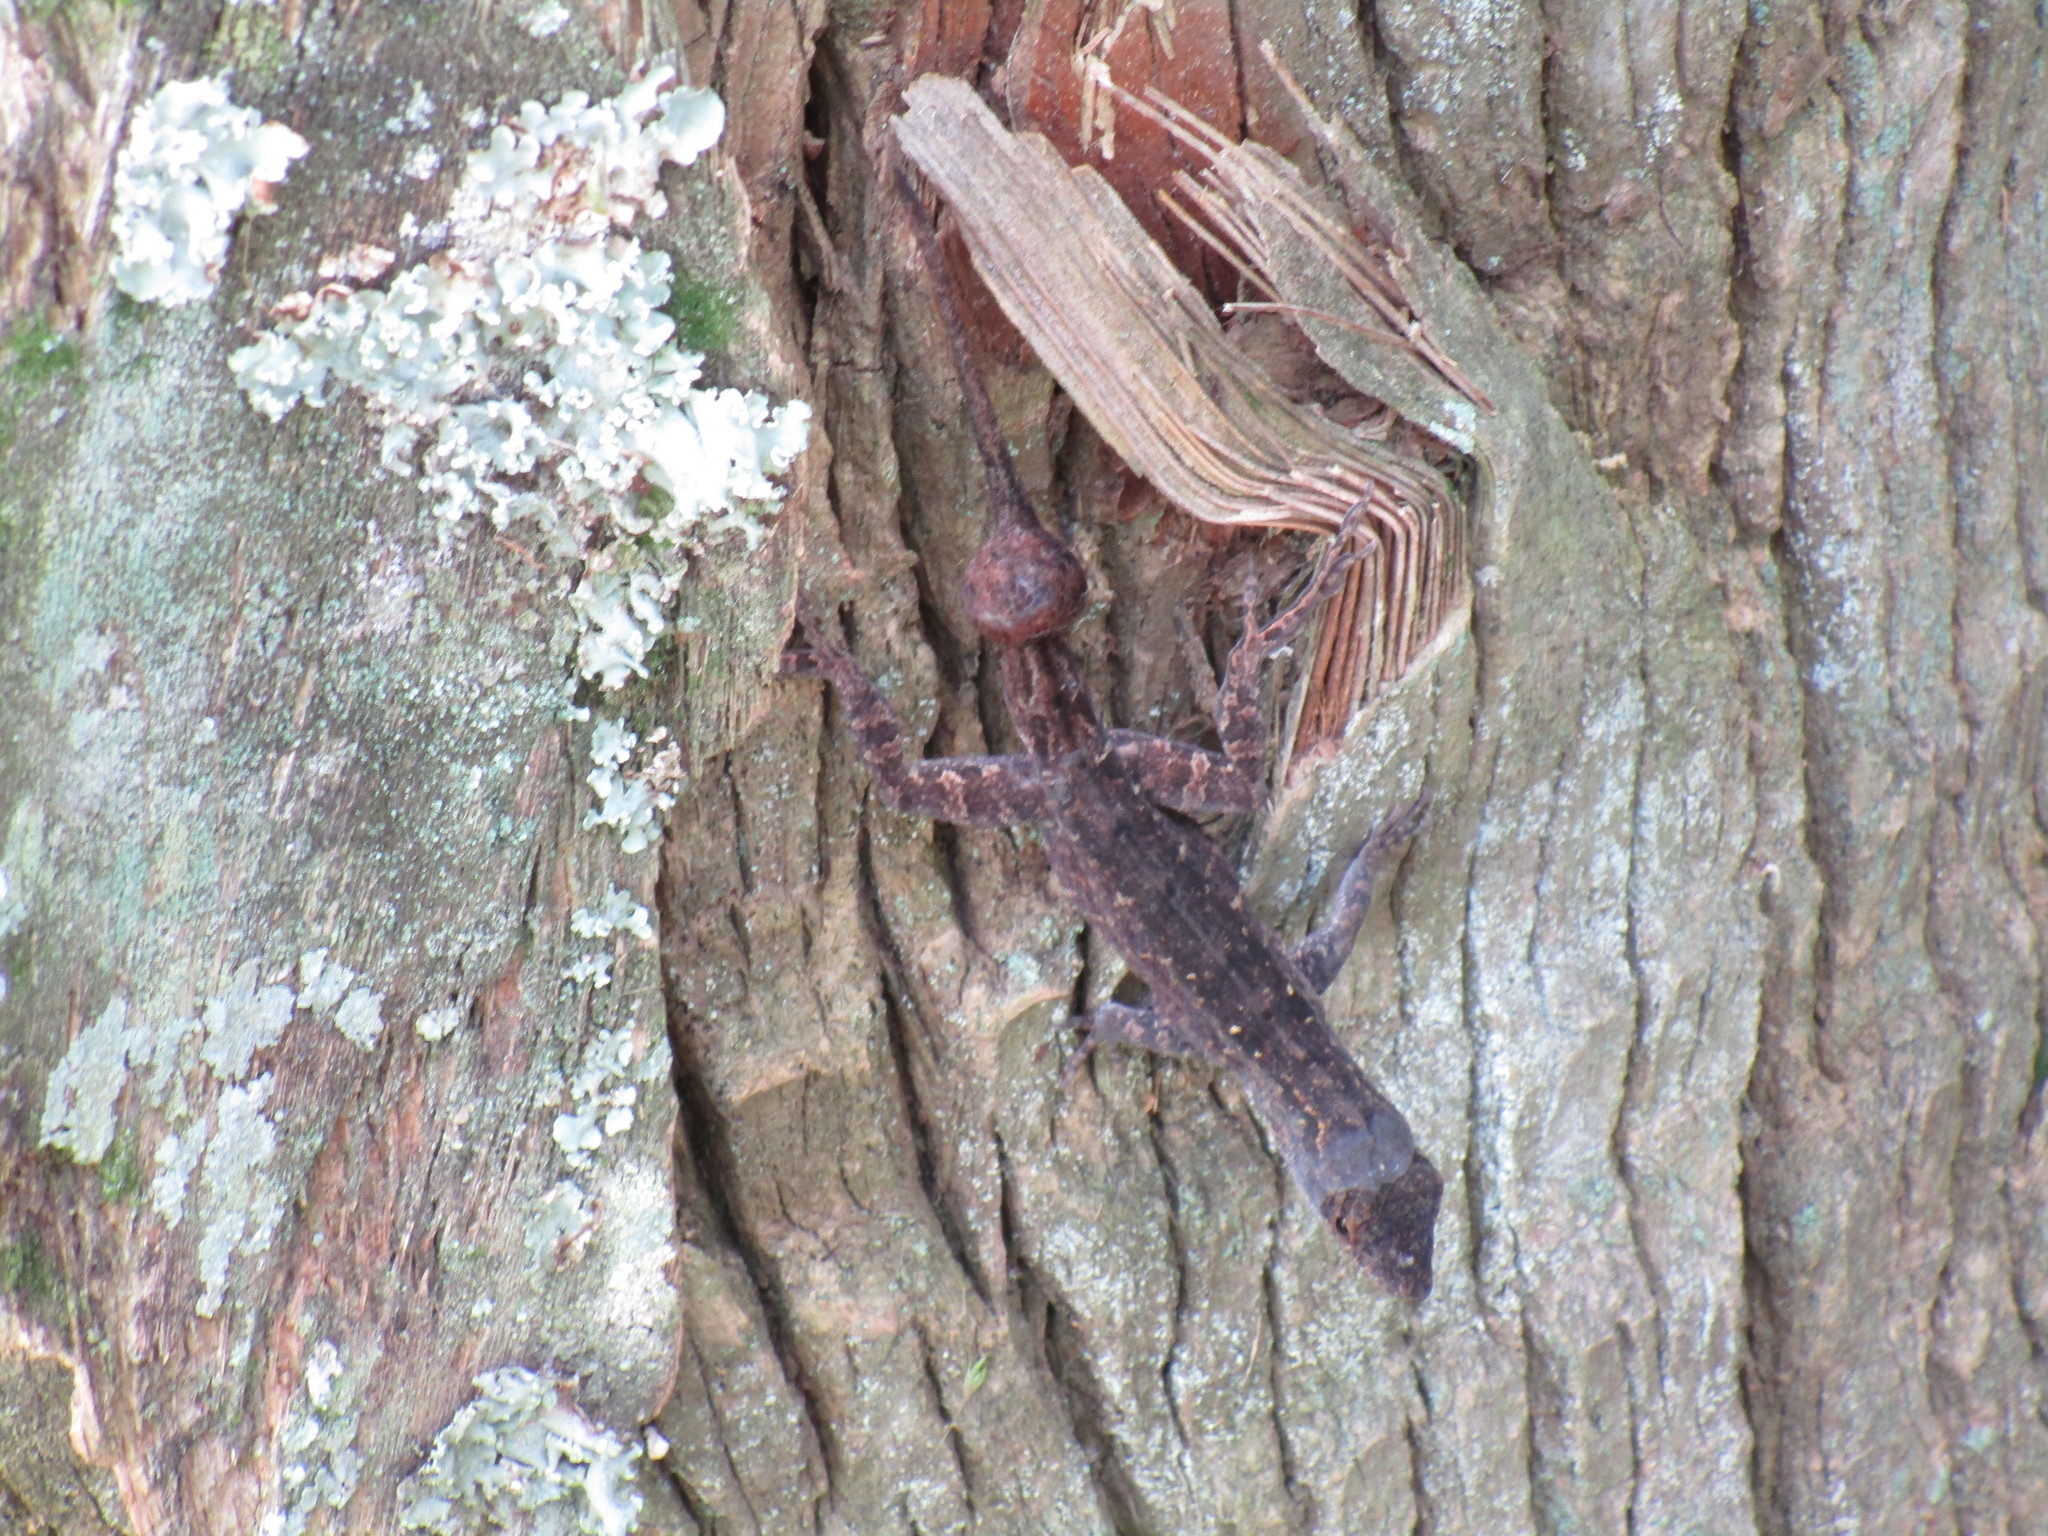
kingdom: Animalia
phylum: Chordata
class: Squamata
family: Dactyloidae
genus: Anolis
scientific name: Anolis sagrei
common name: Brown anole
